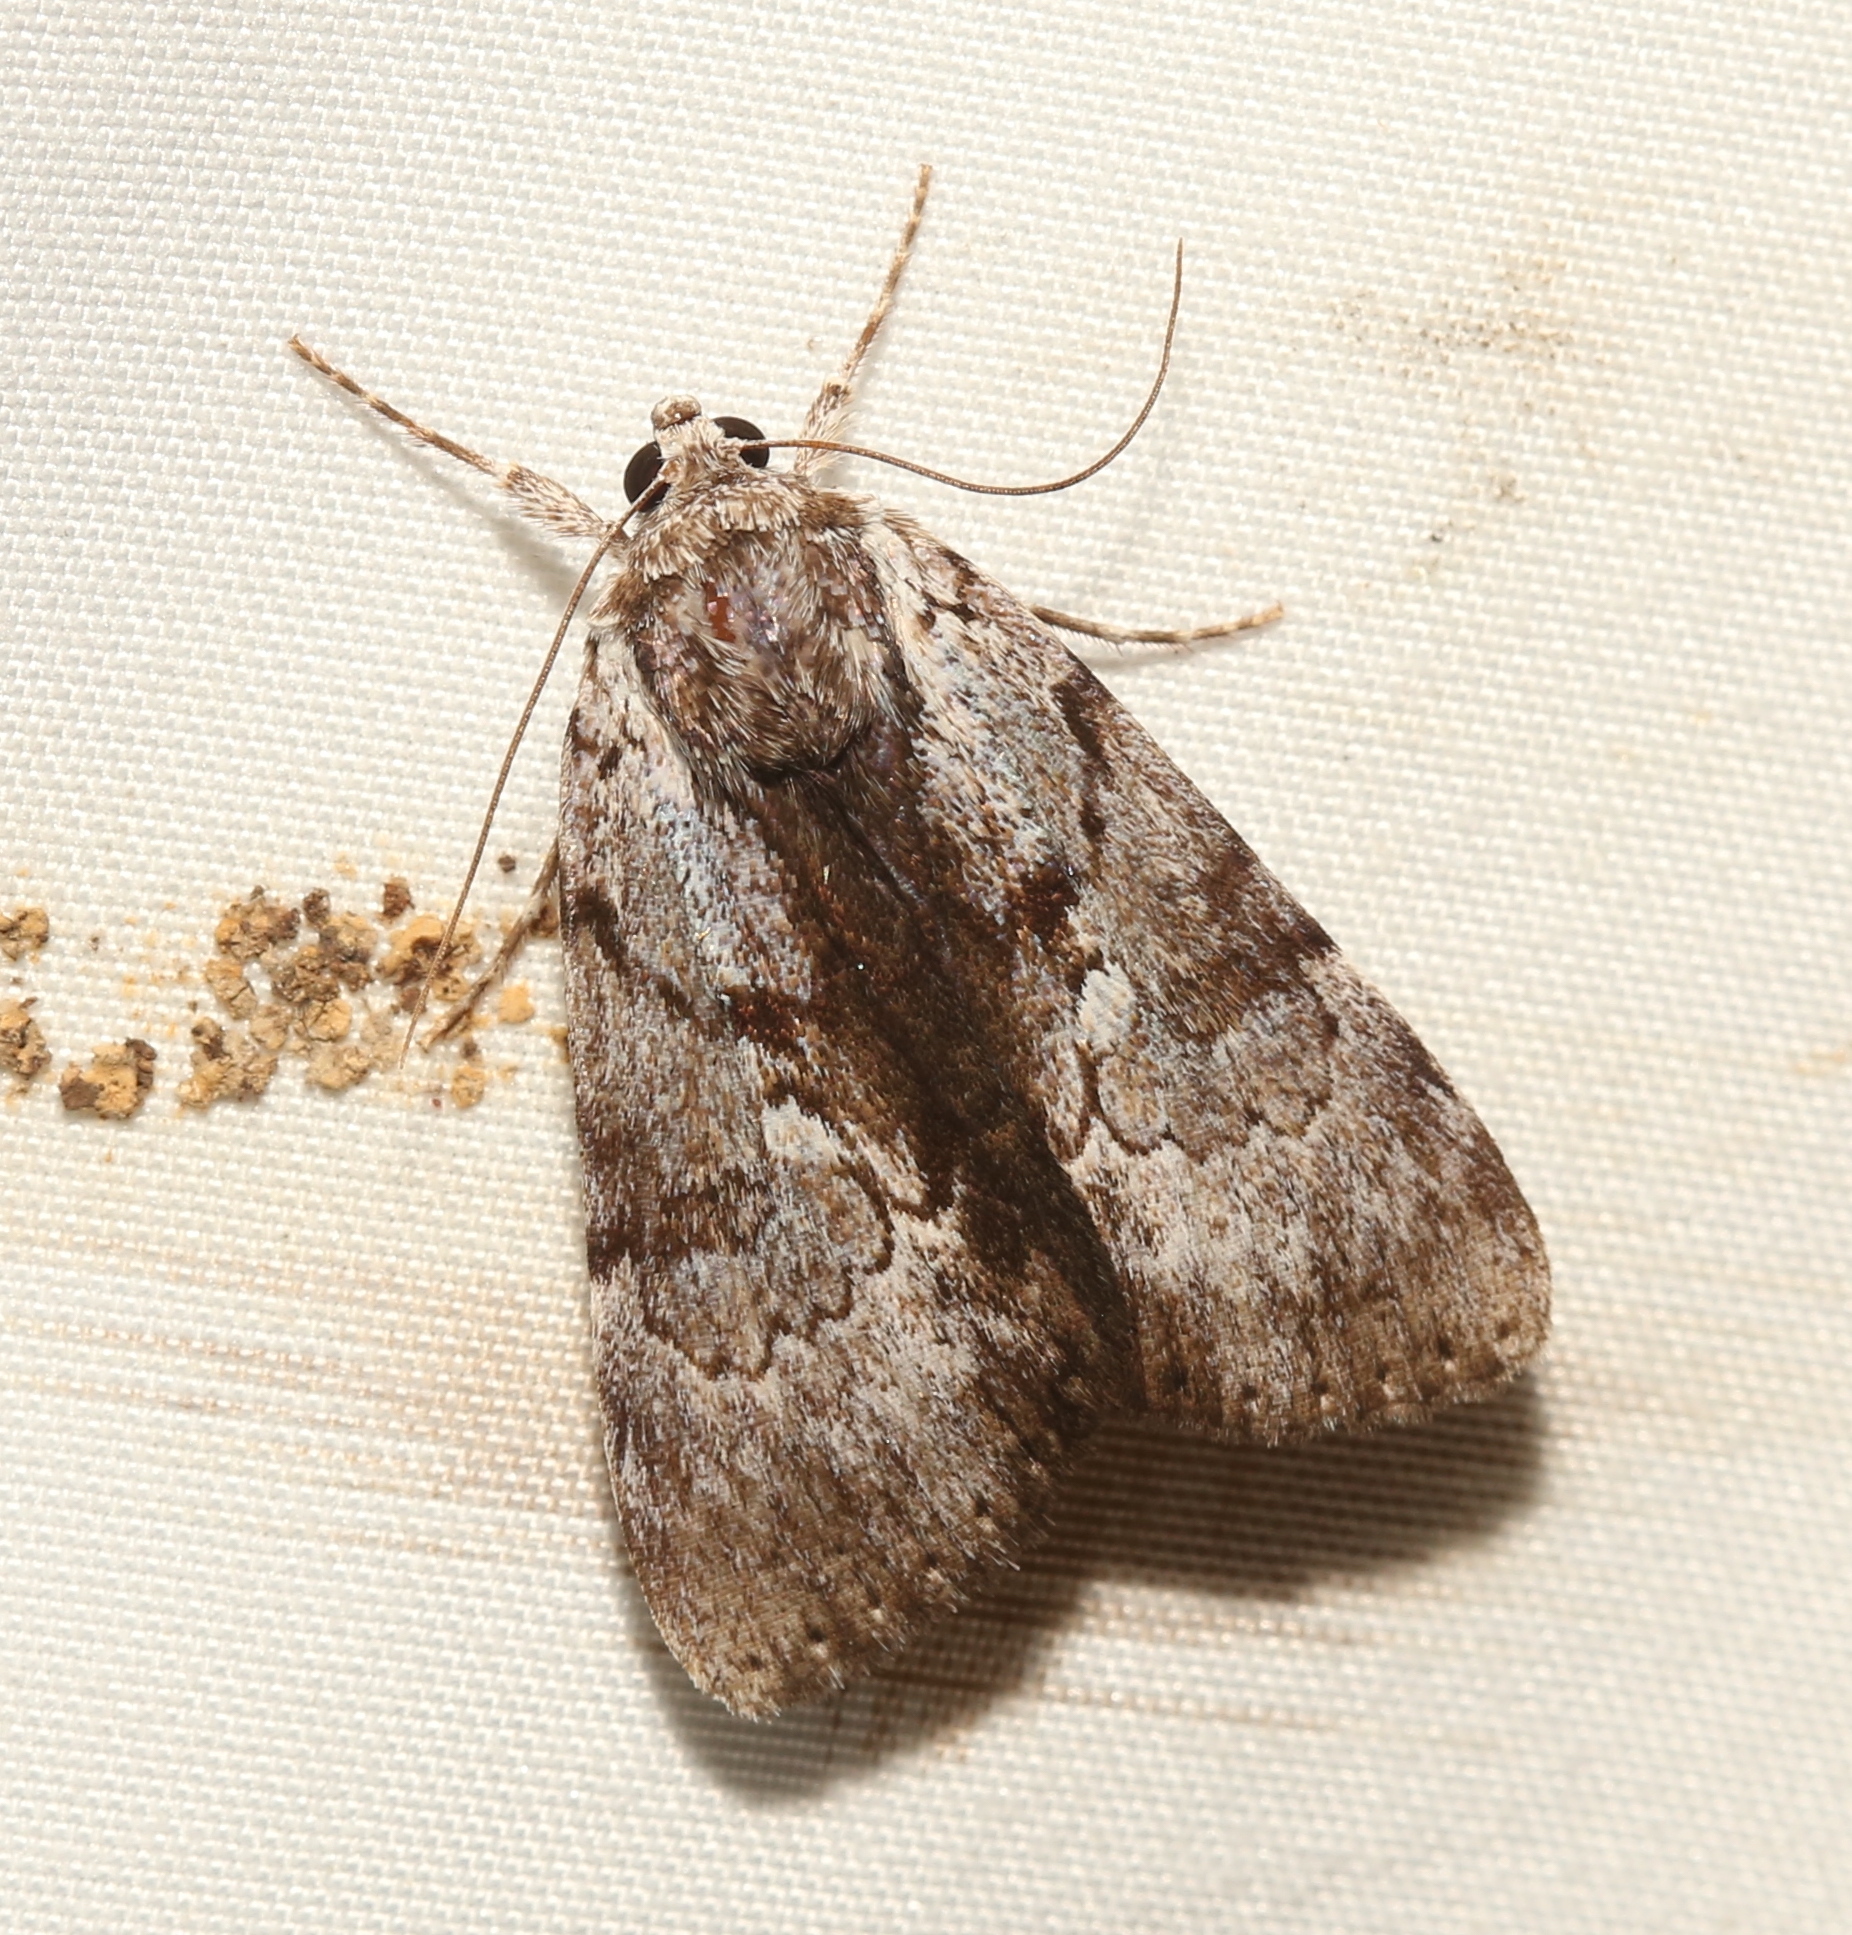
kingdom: Animalia
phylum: Arthropoda
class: Insecta
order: Lepidoptera
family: Erebidae
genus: Catocala
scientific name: Catocala andromedae
